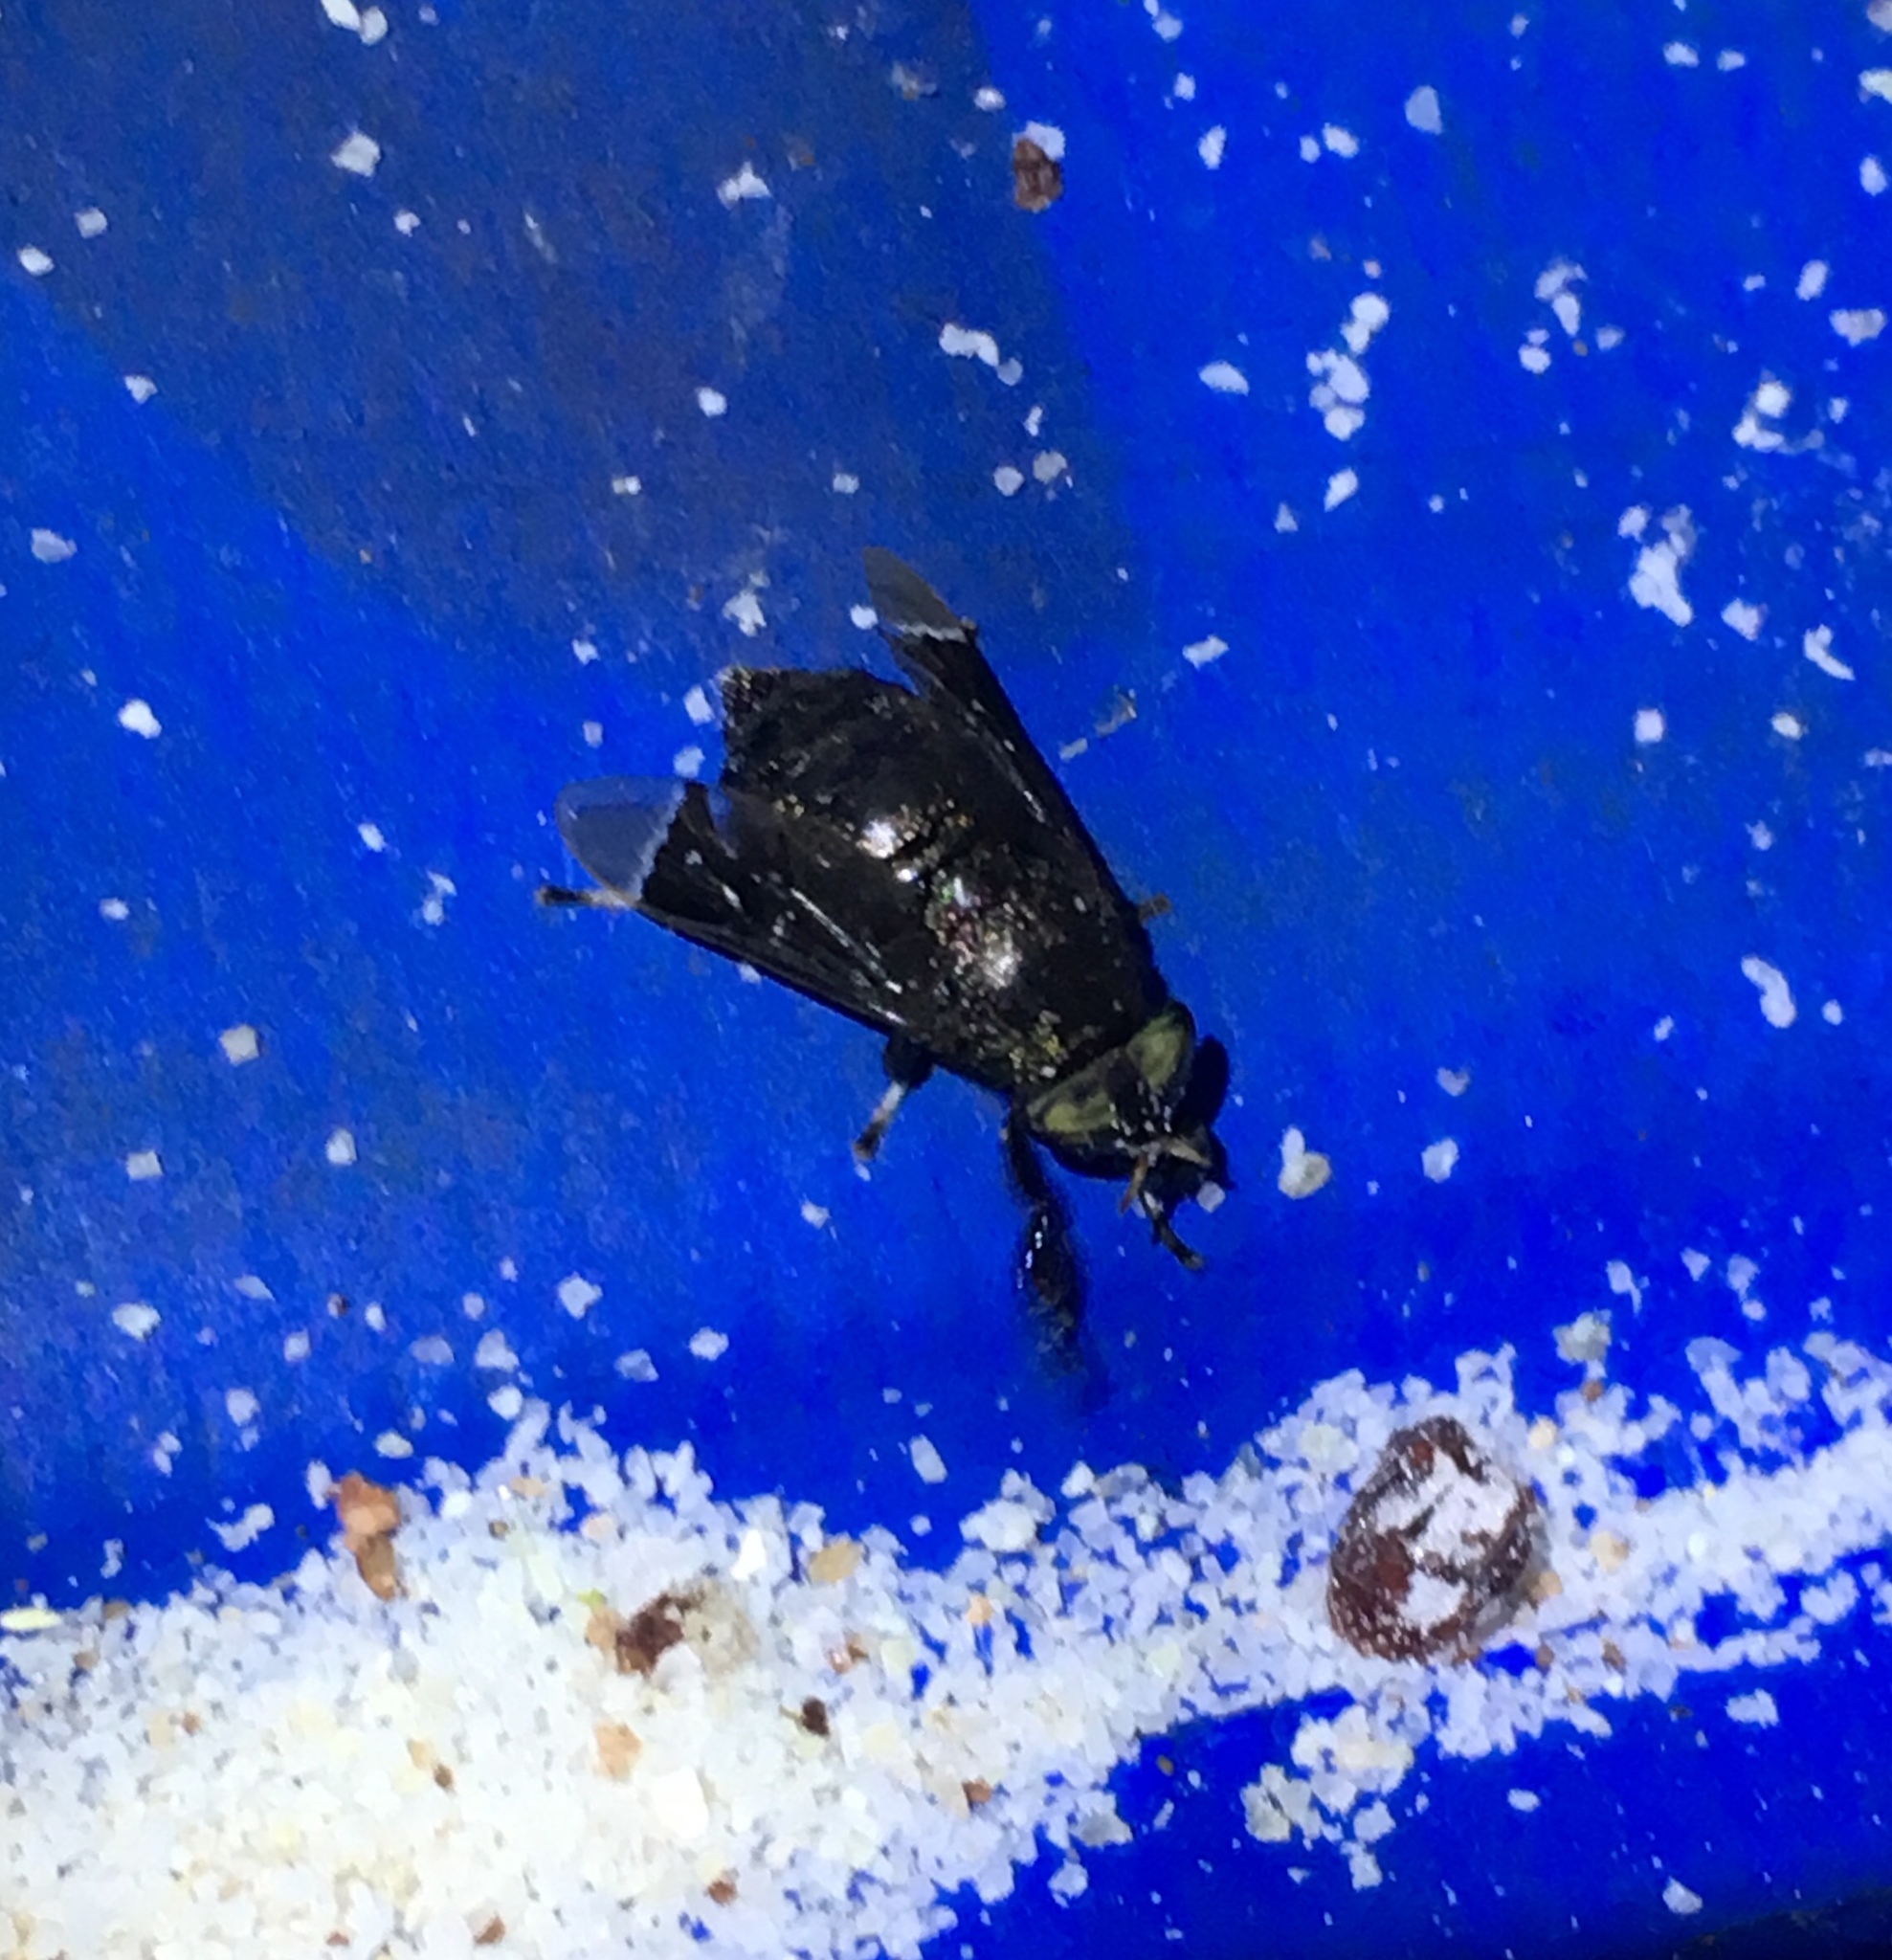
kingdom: Animalia
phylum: Arthropoda
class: Insecta
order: Diptera
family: Tabanidae
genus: Lepiselaga
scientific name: Lepiselaga crassipes
